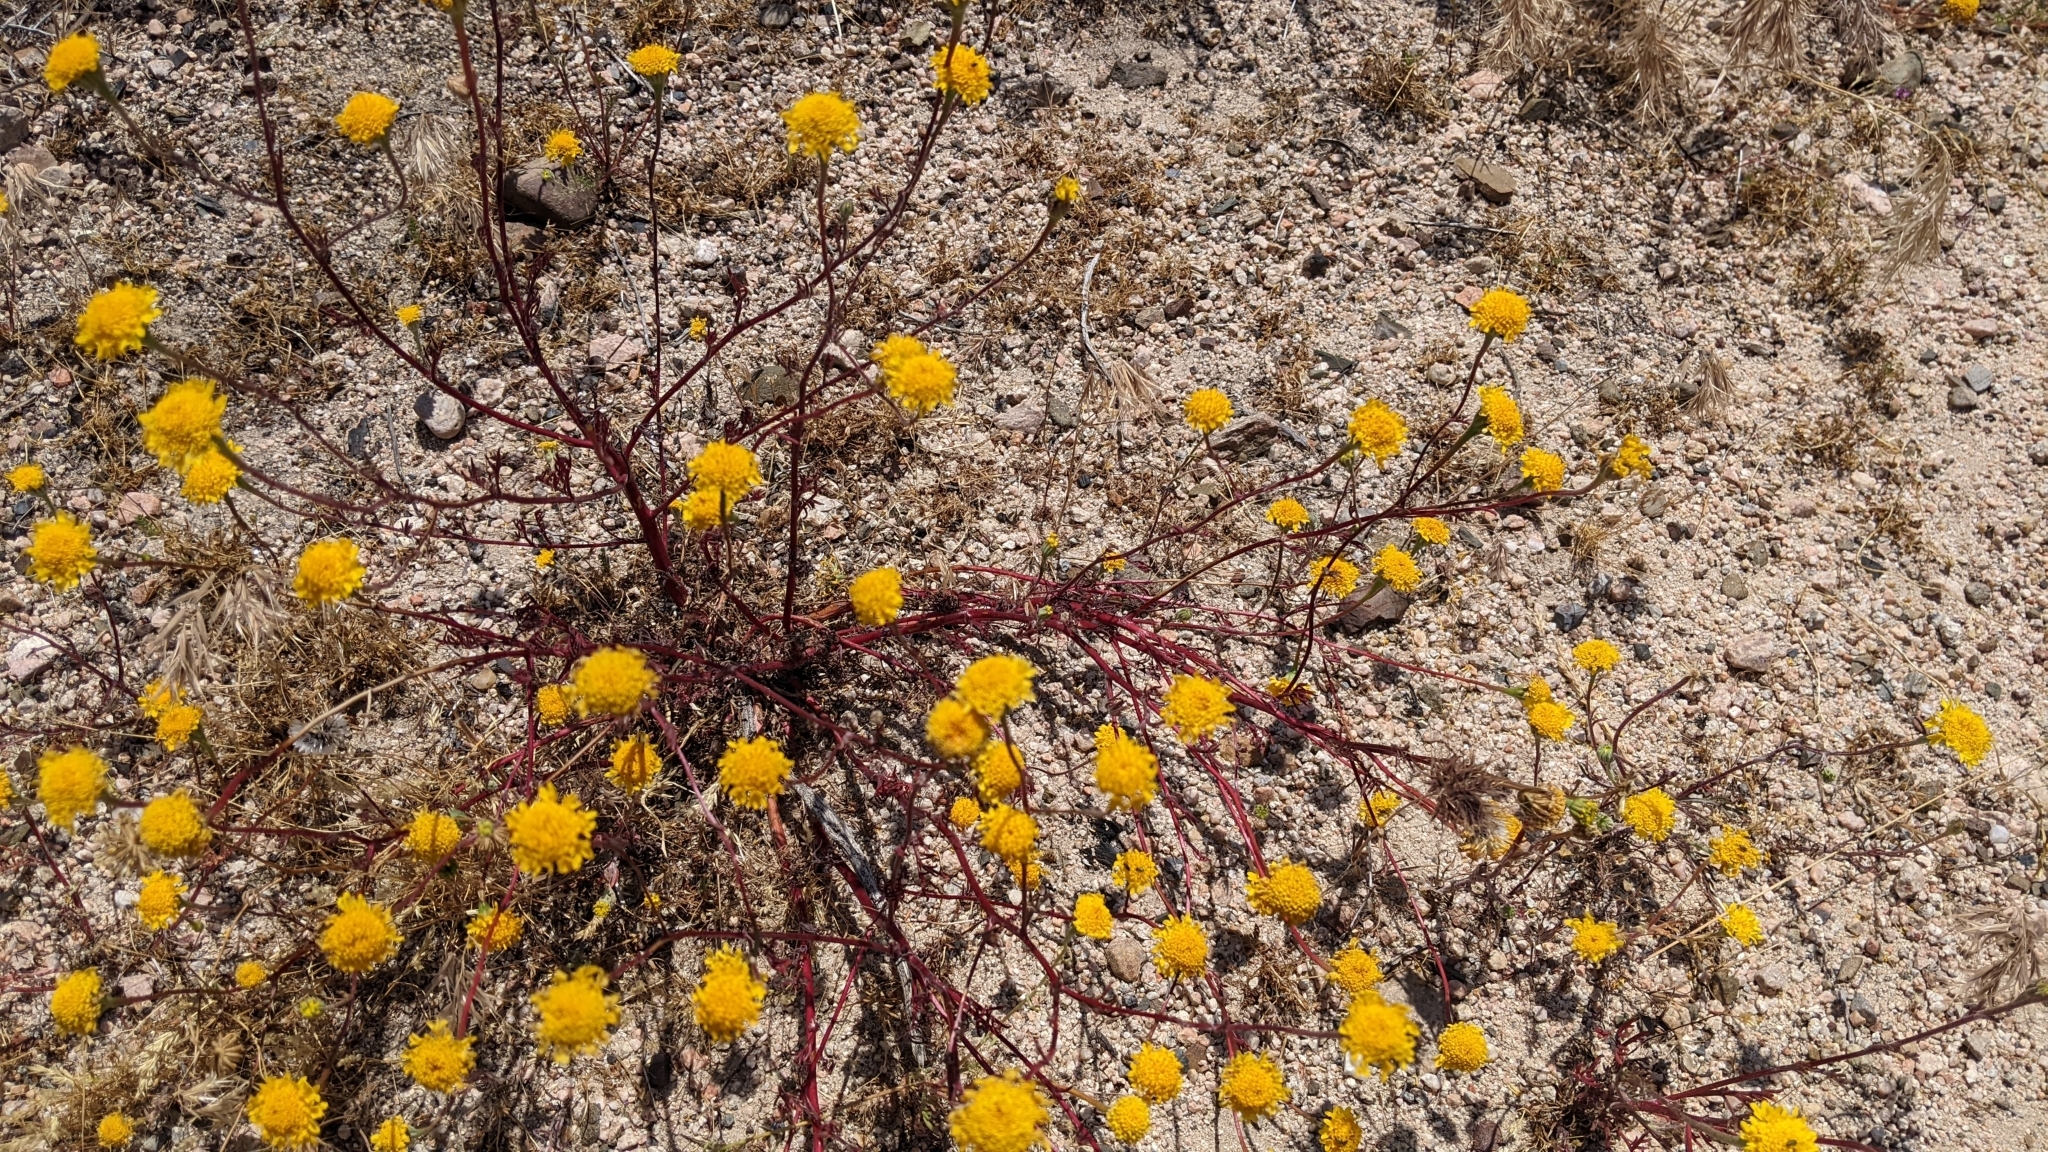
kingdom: Plantae
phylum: Tracheophyta
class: Magnoliopsida
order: Asterales
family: Asteraceae
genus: Chaenactis
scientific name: Chaenactis glabriuscula
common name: Yellow pincushion
